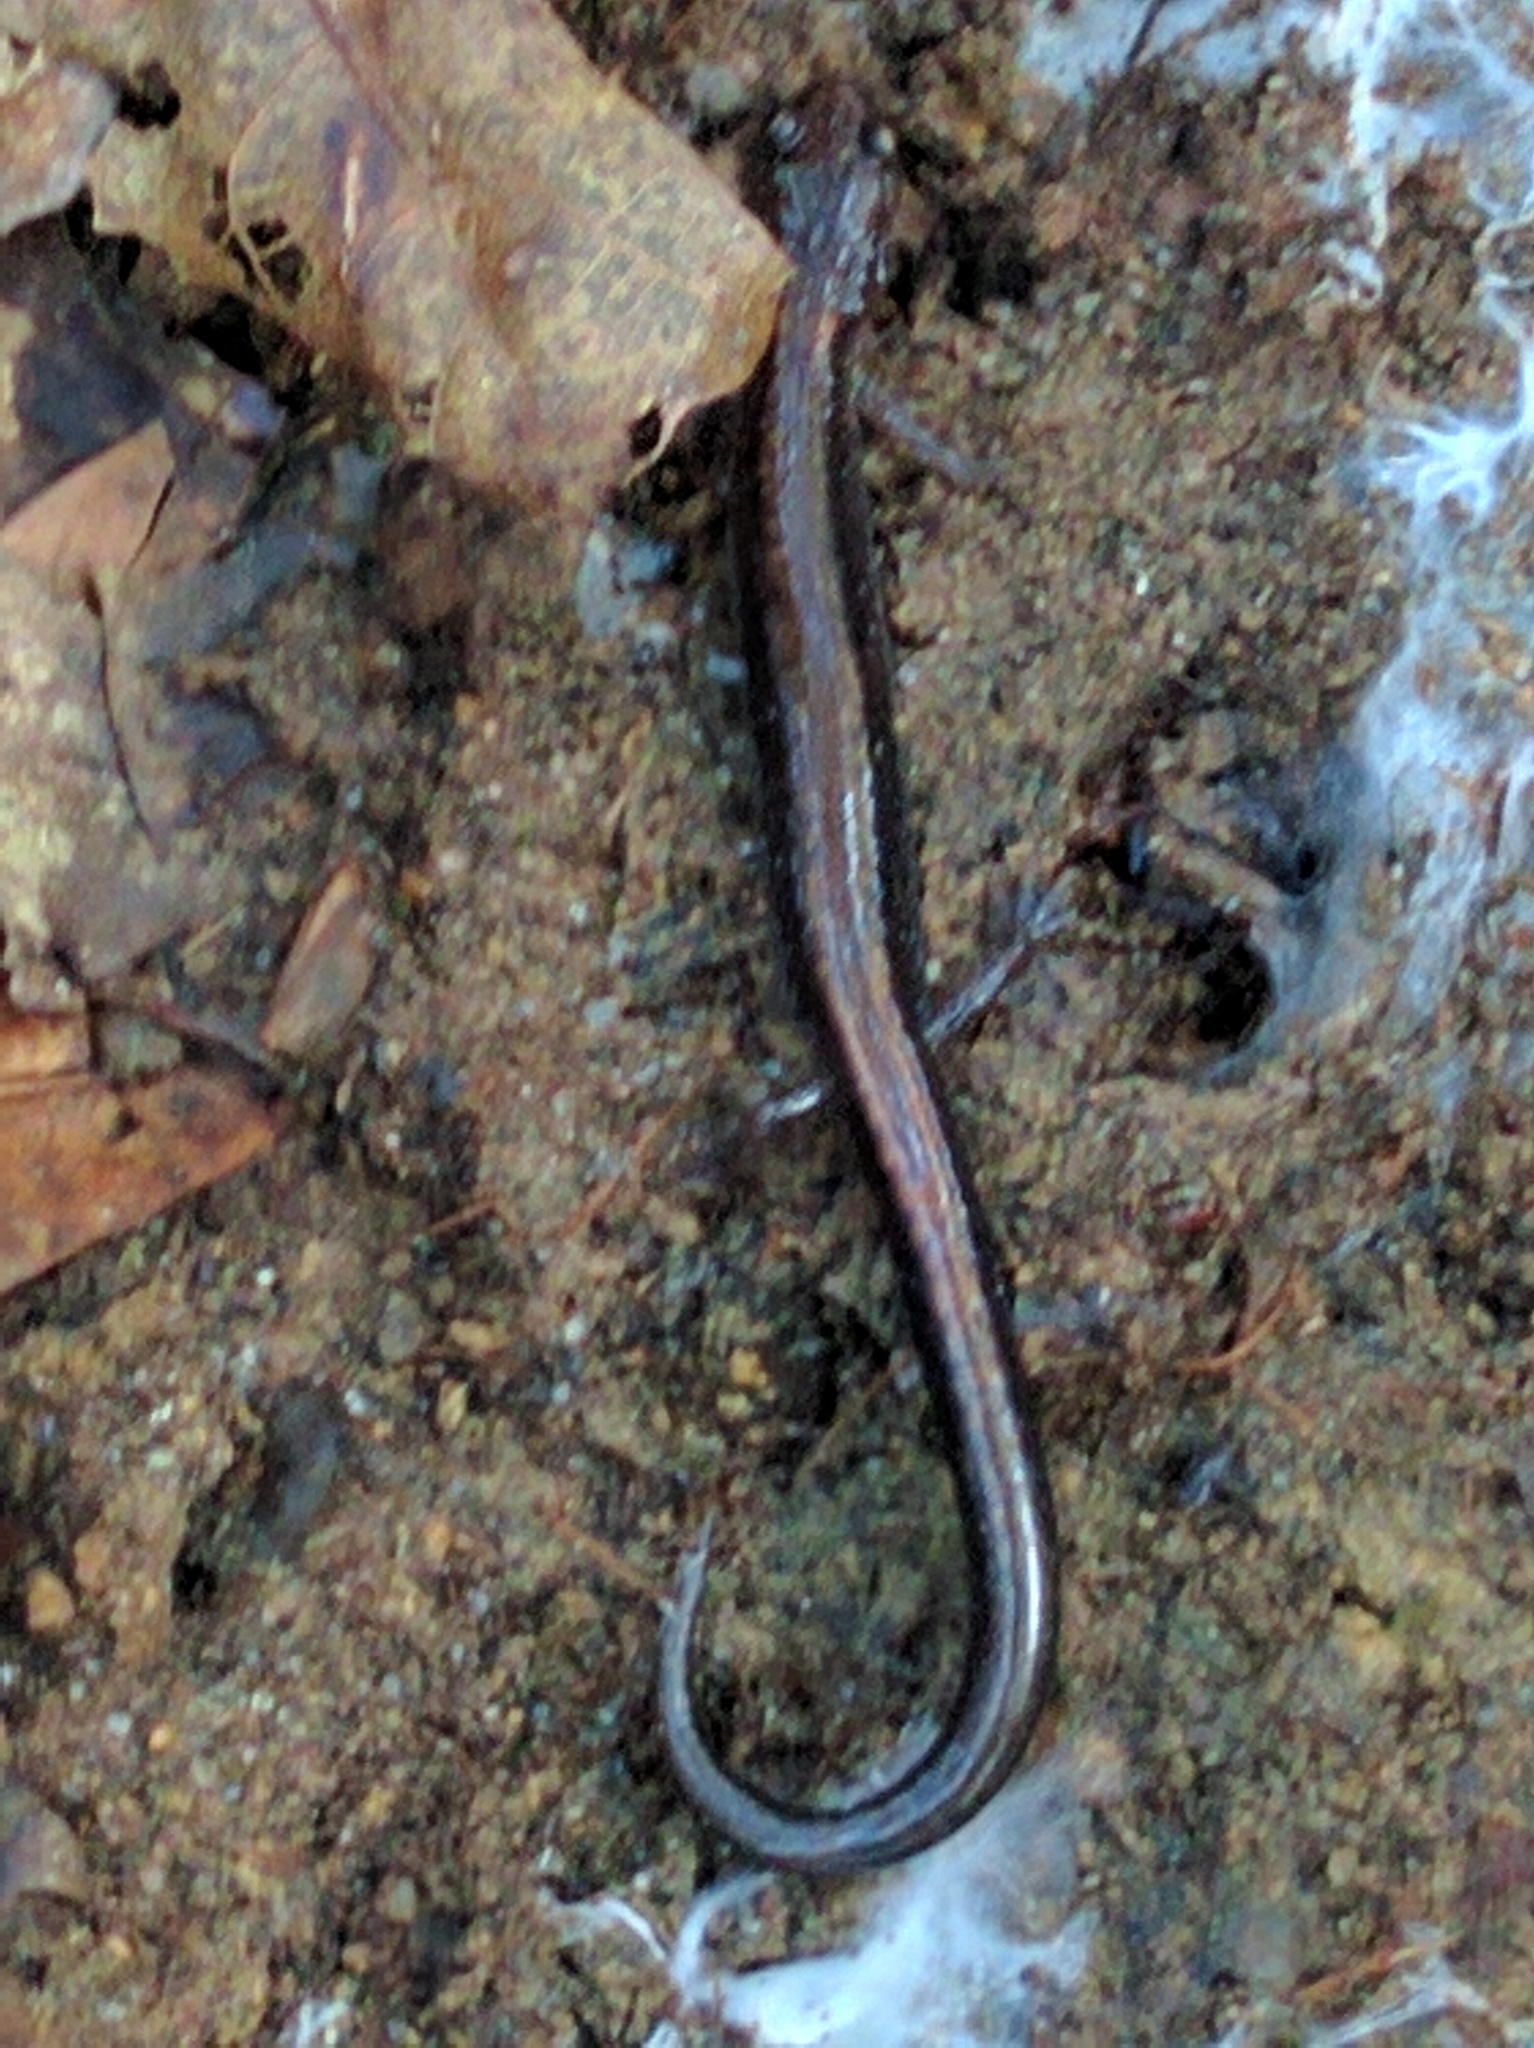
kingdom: Animalia
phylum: Chordata
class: Amphibia
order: Caudata
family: Plethodontidae
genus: Plethodon
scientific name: Plethodon cinereus
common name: Redback salamander
